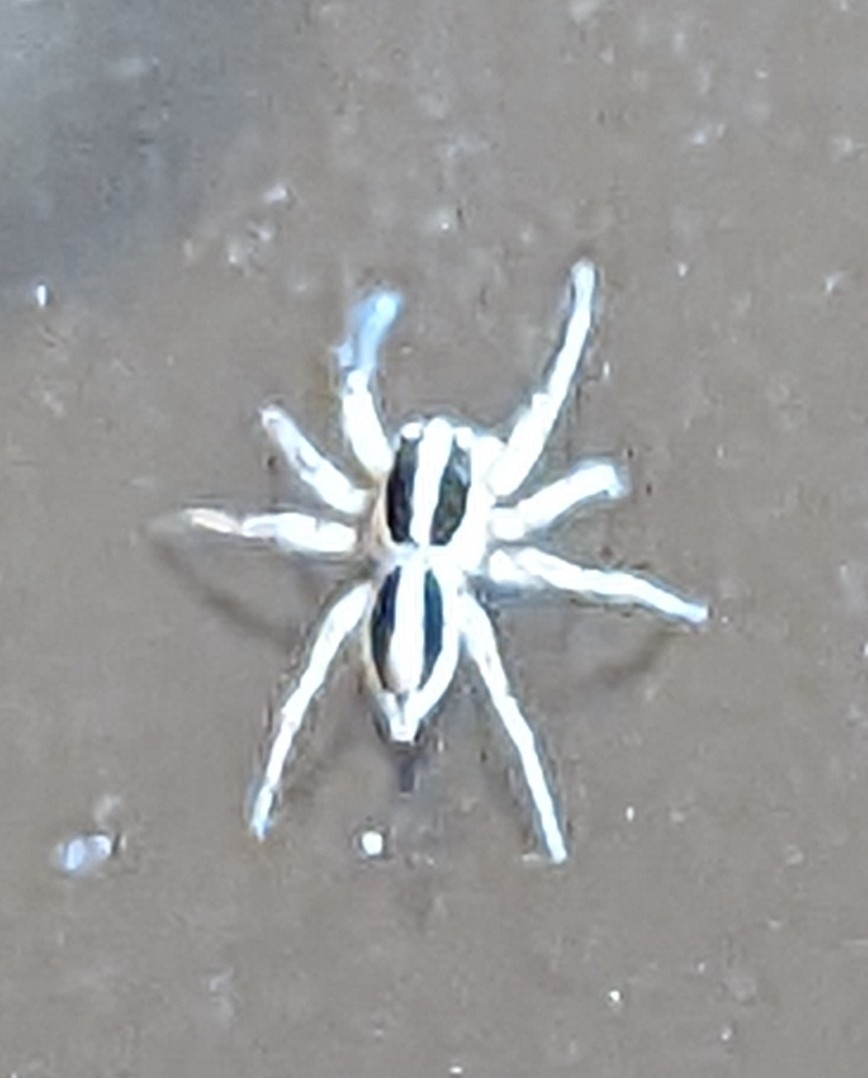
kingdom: Animalia
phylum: Arthropoda
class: Arachnida
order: Araneae
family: Salticidae
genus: Plexippus
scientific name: Plexippus paykulli
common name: Pantropical jumper
